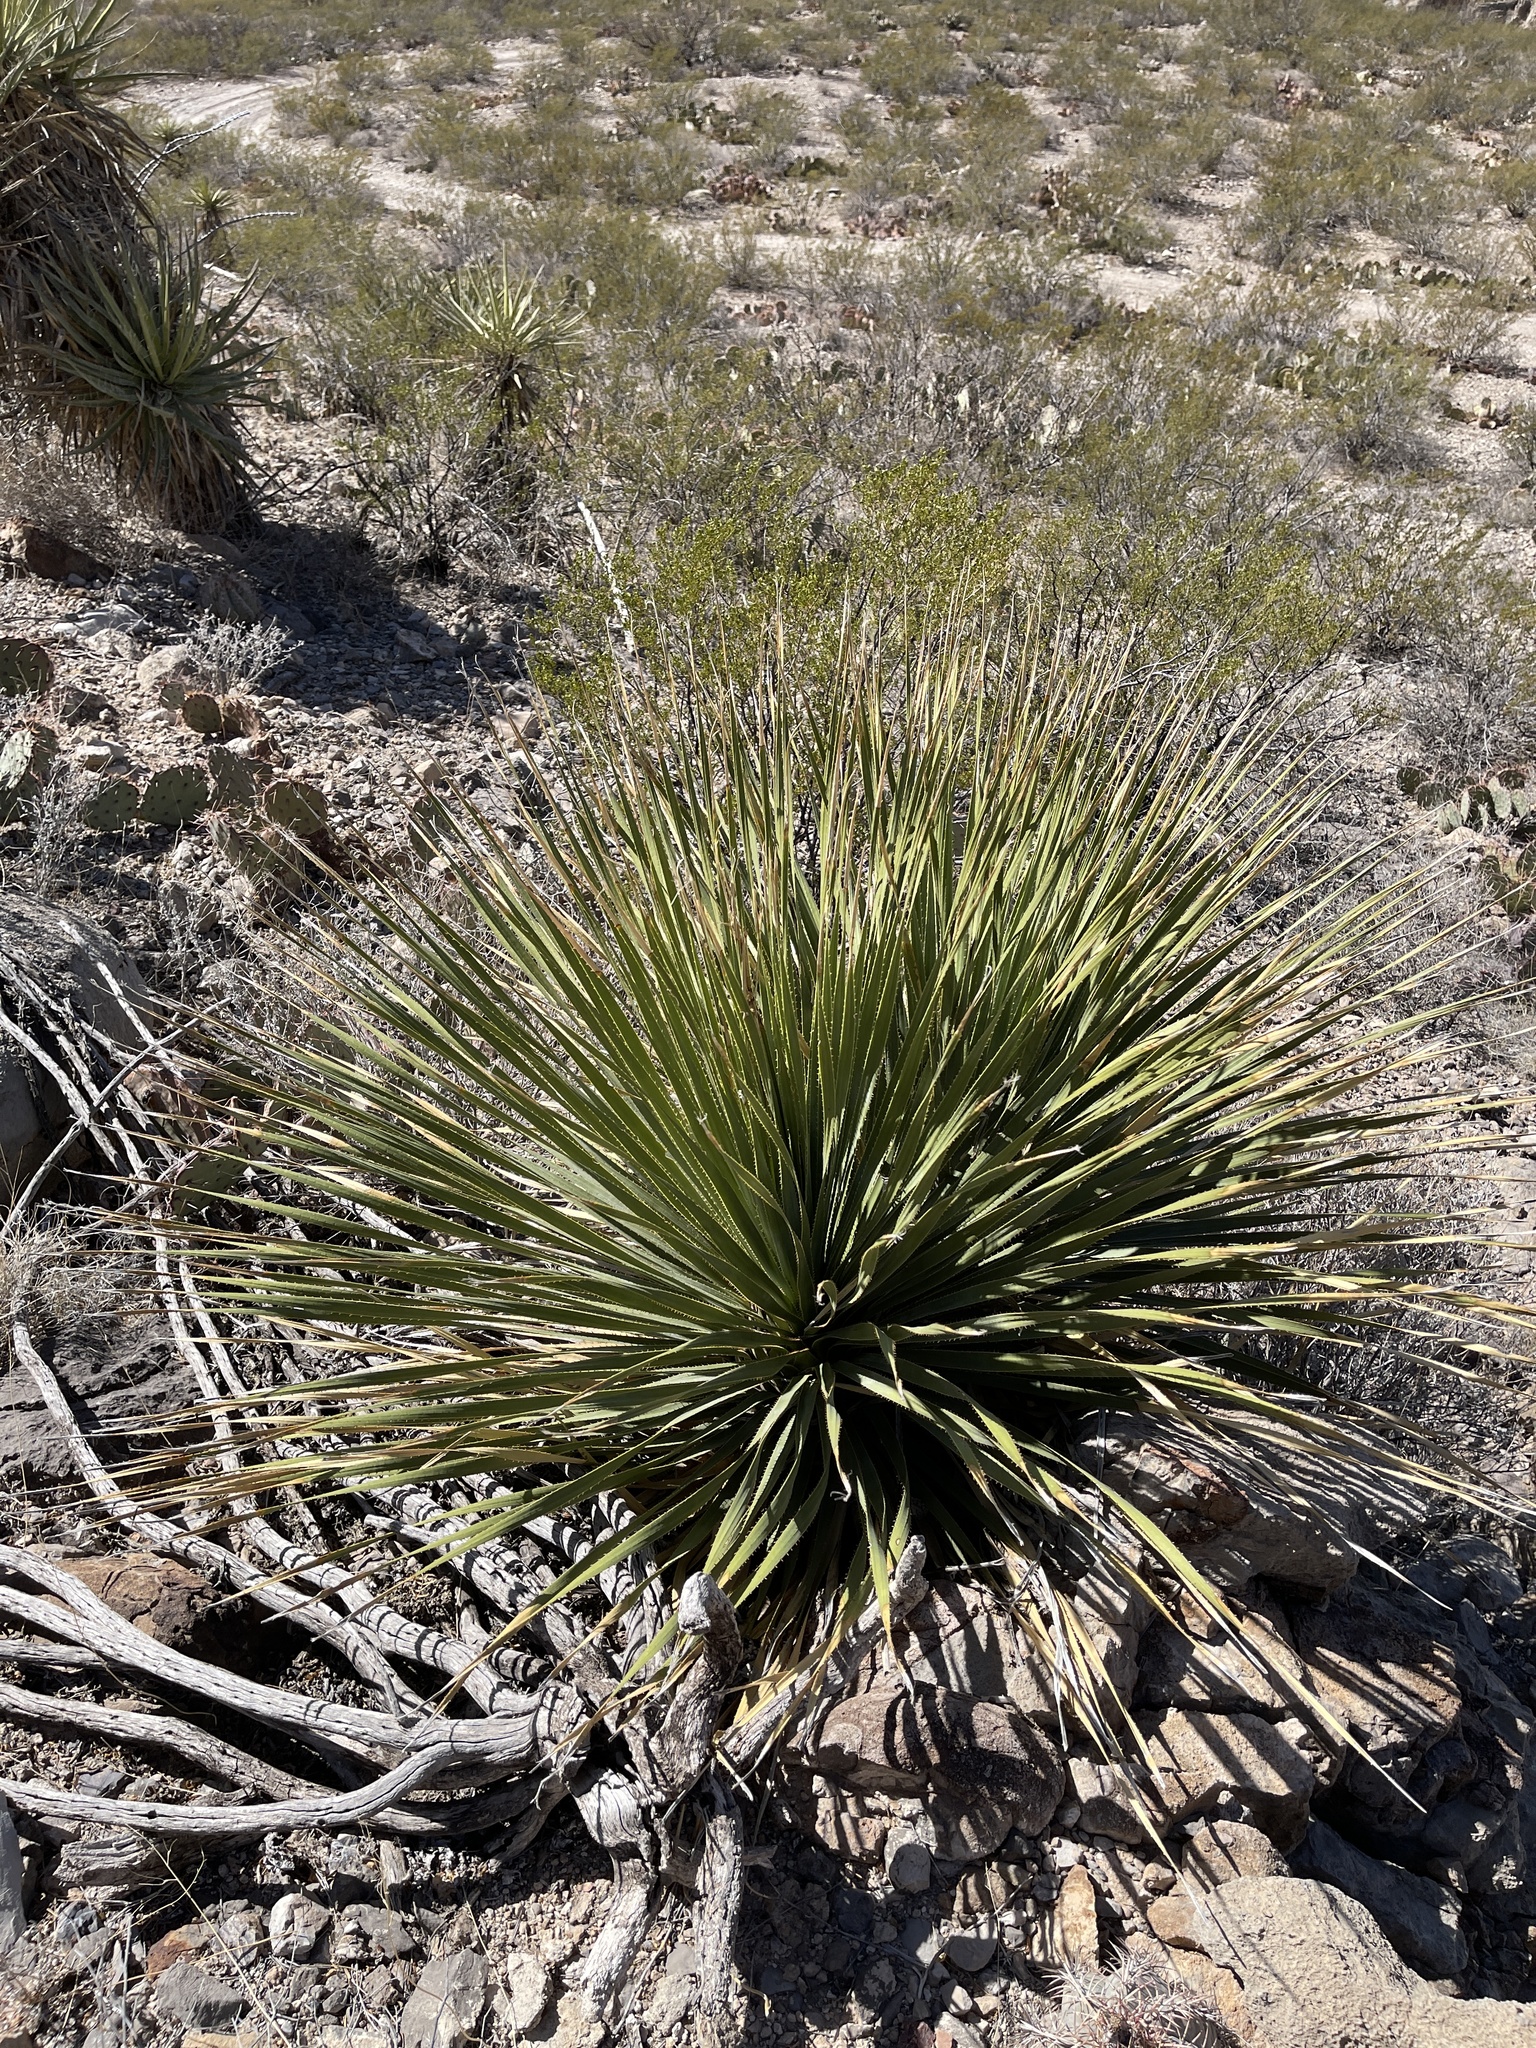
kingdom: Plantae
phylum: Tracheophyta
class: Liliopsida
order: Asparagales
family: Asparagaceae
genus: Dasylirion
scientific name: Dasylirion wheeleri
